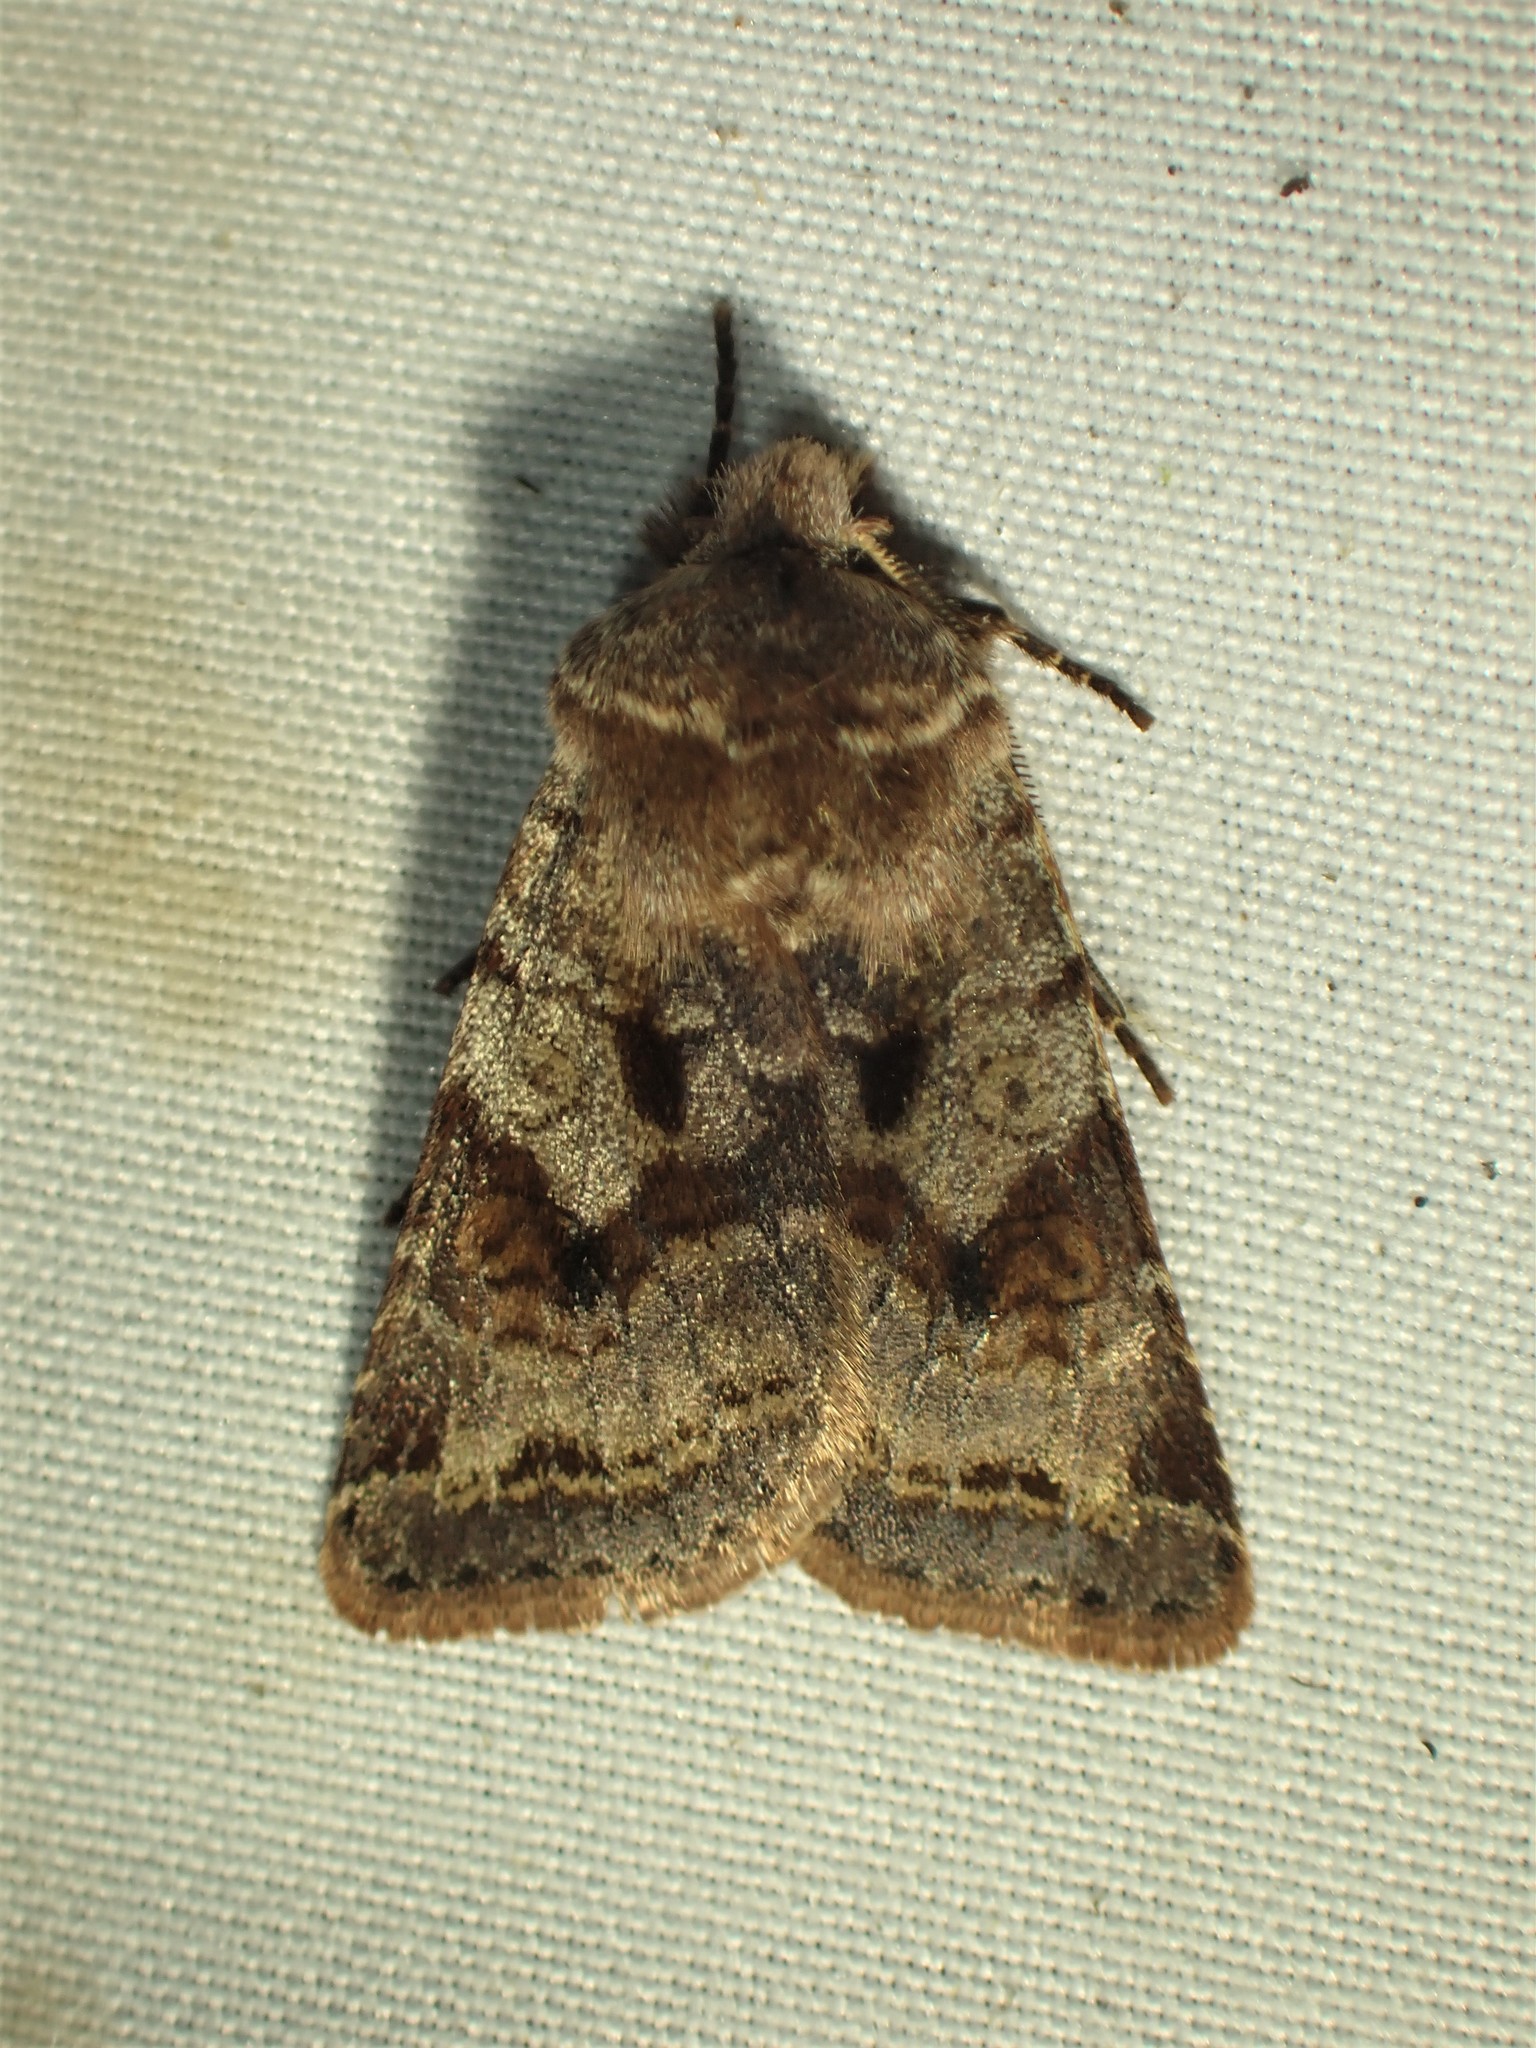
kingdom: Animalia
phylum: Arthropoda
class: Insecta
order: Lepidoptera
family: Noctuidae
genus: Cerastis
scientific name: Cerastis salicarum
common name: Willow dart
